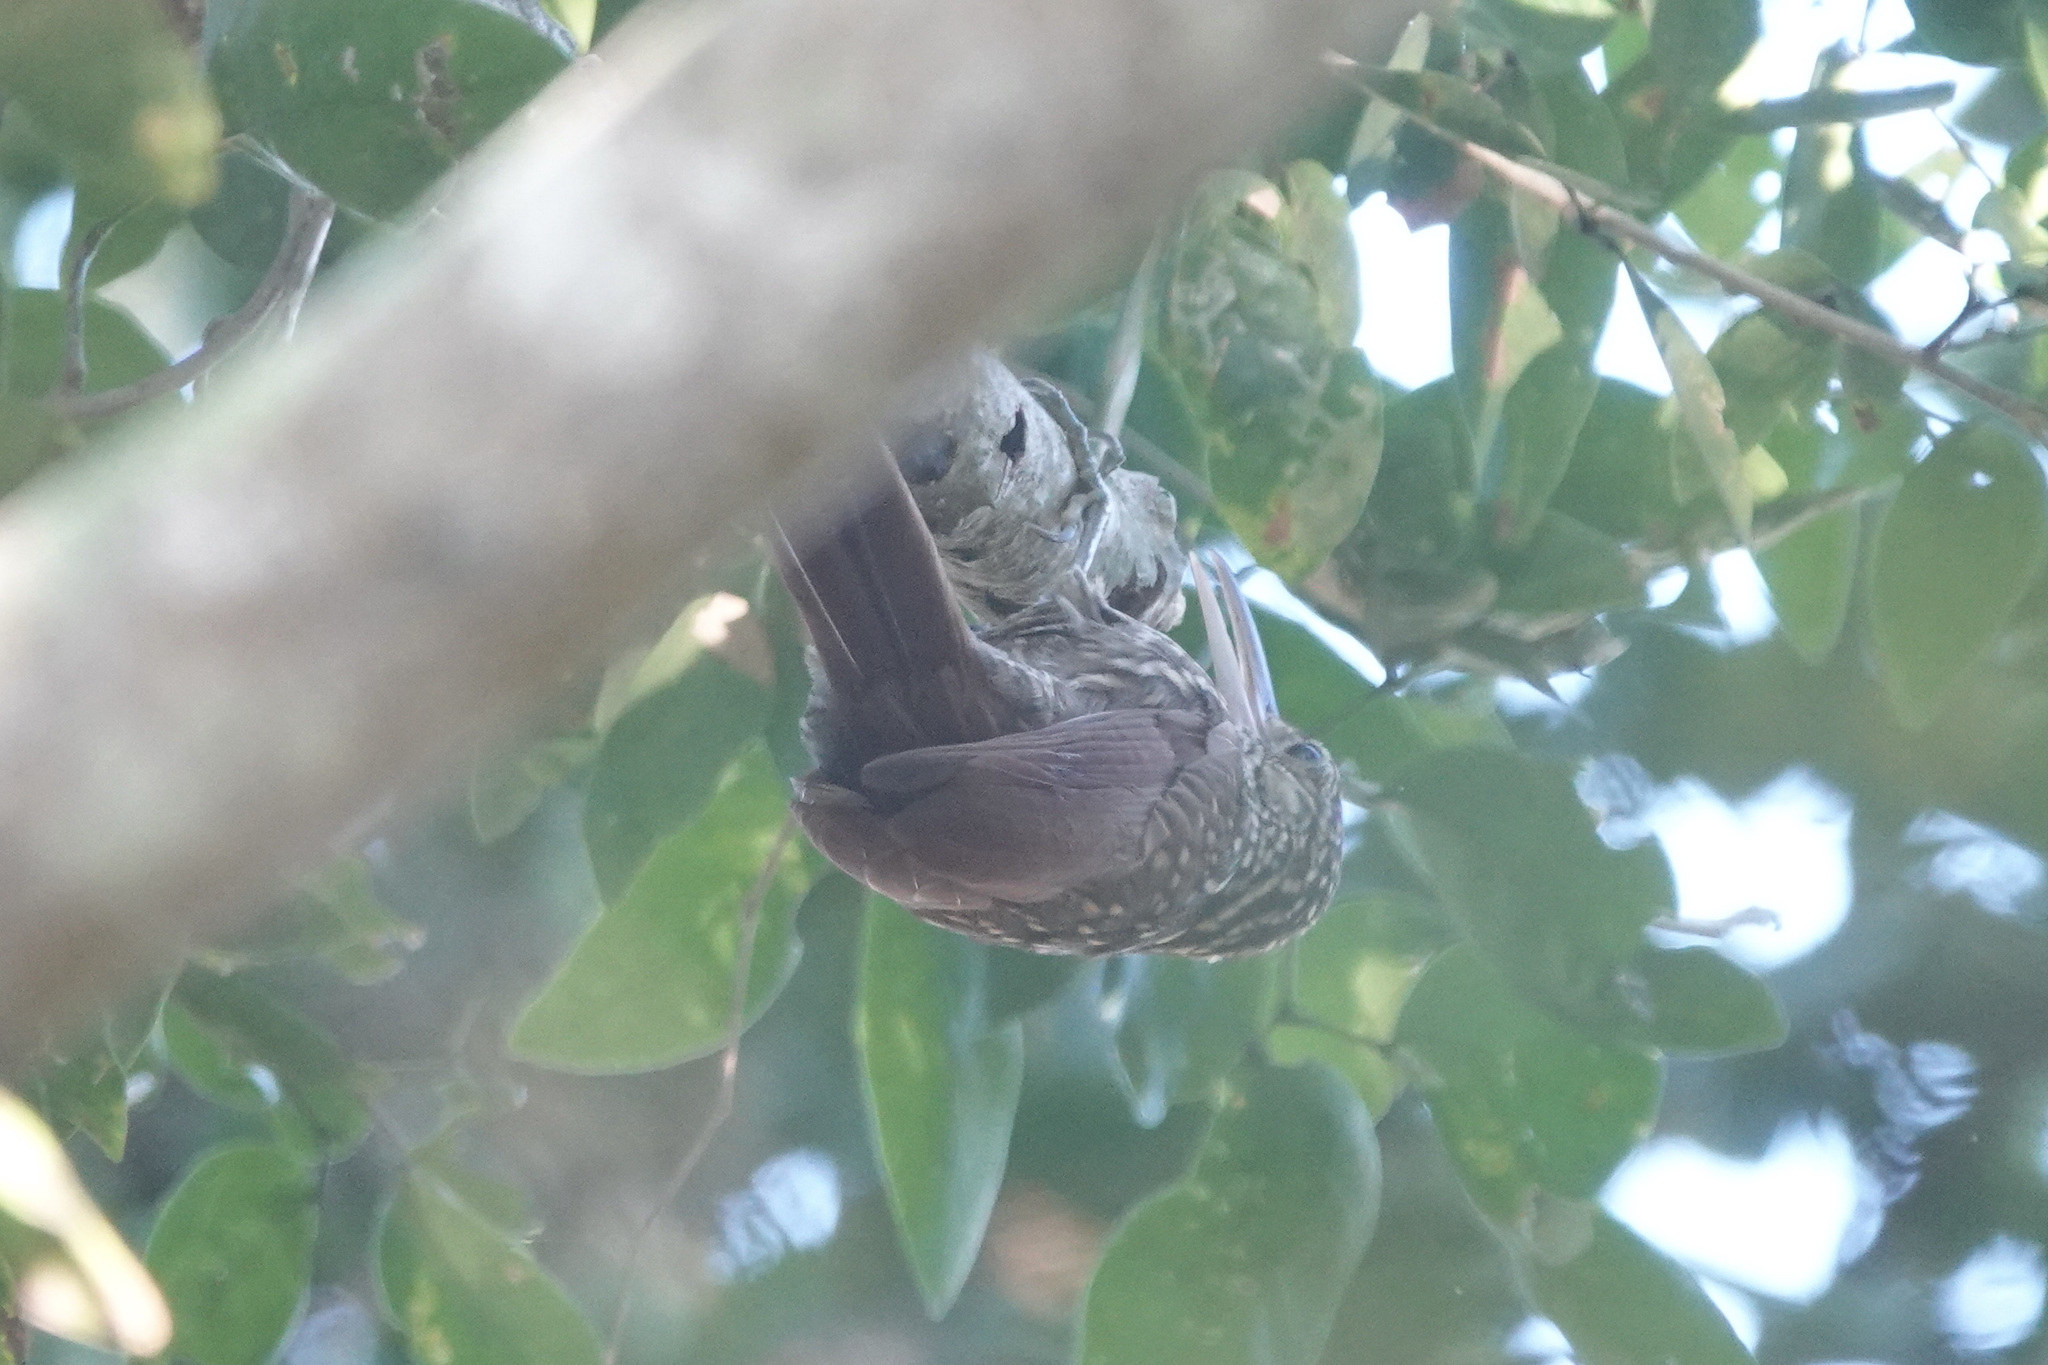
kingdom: Animalia
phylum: Chordata
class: Aves
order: Passeriformes
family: Furnariidae
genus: Xiphorhynchus
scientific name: Xiphorhynchus flavigaster
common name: Ivory-billed woodcreeper
